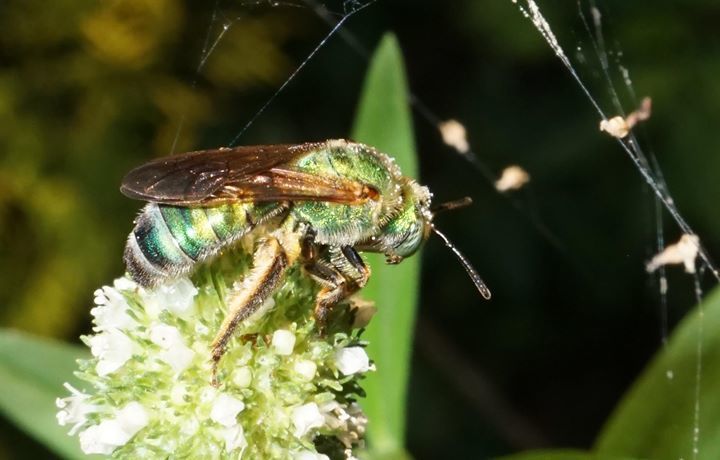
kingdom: Animalia
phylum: Arthropoda
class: Insecta
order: Hymenoptera
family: Halictidae
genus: Agapostemon
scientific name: Agapostemon splendens
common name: Brown-winged striped sweat bee
